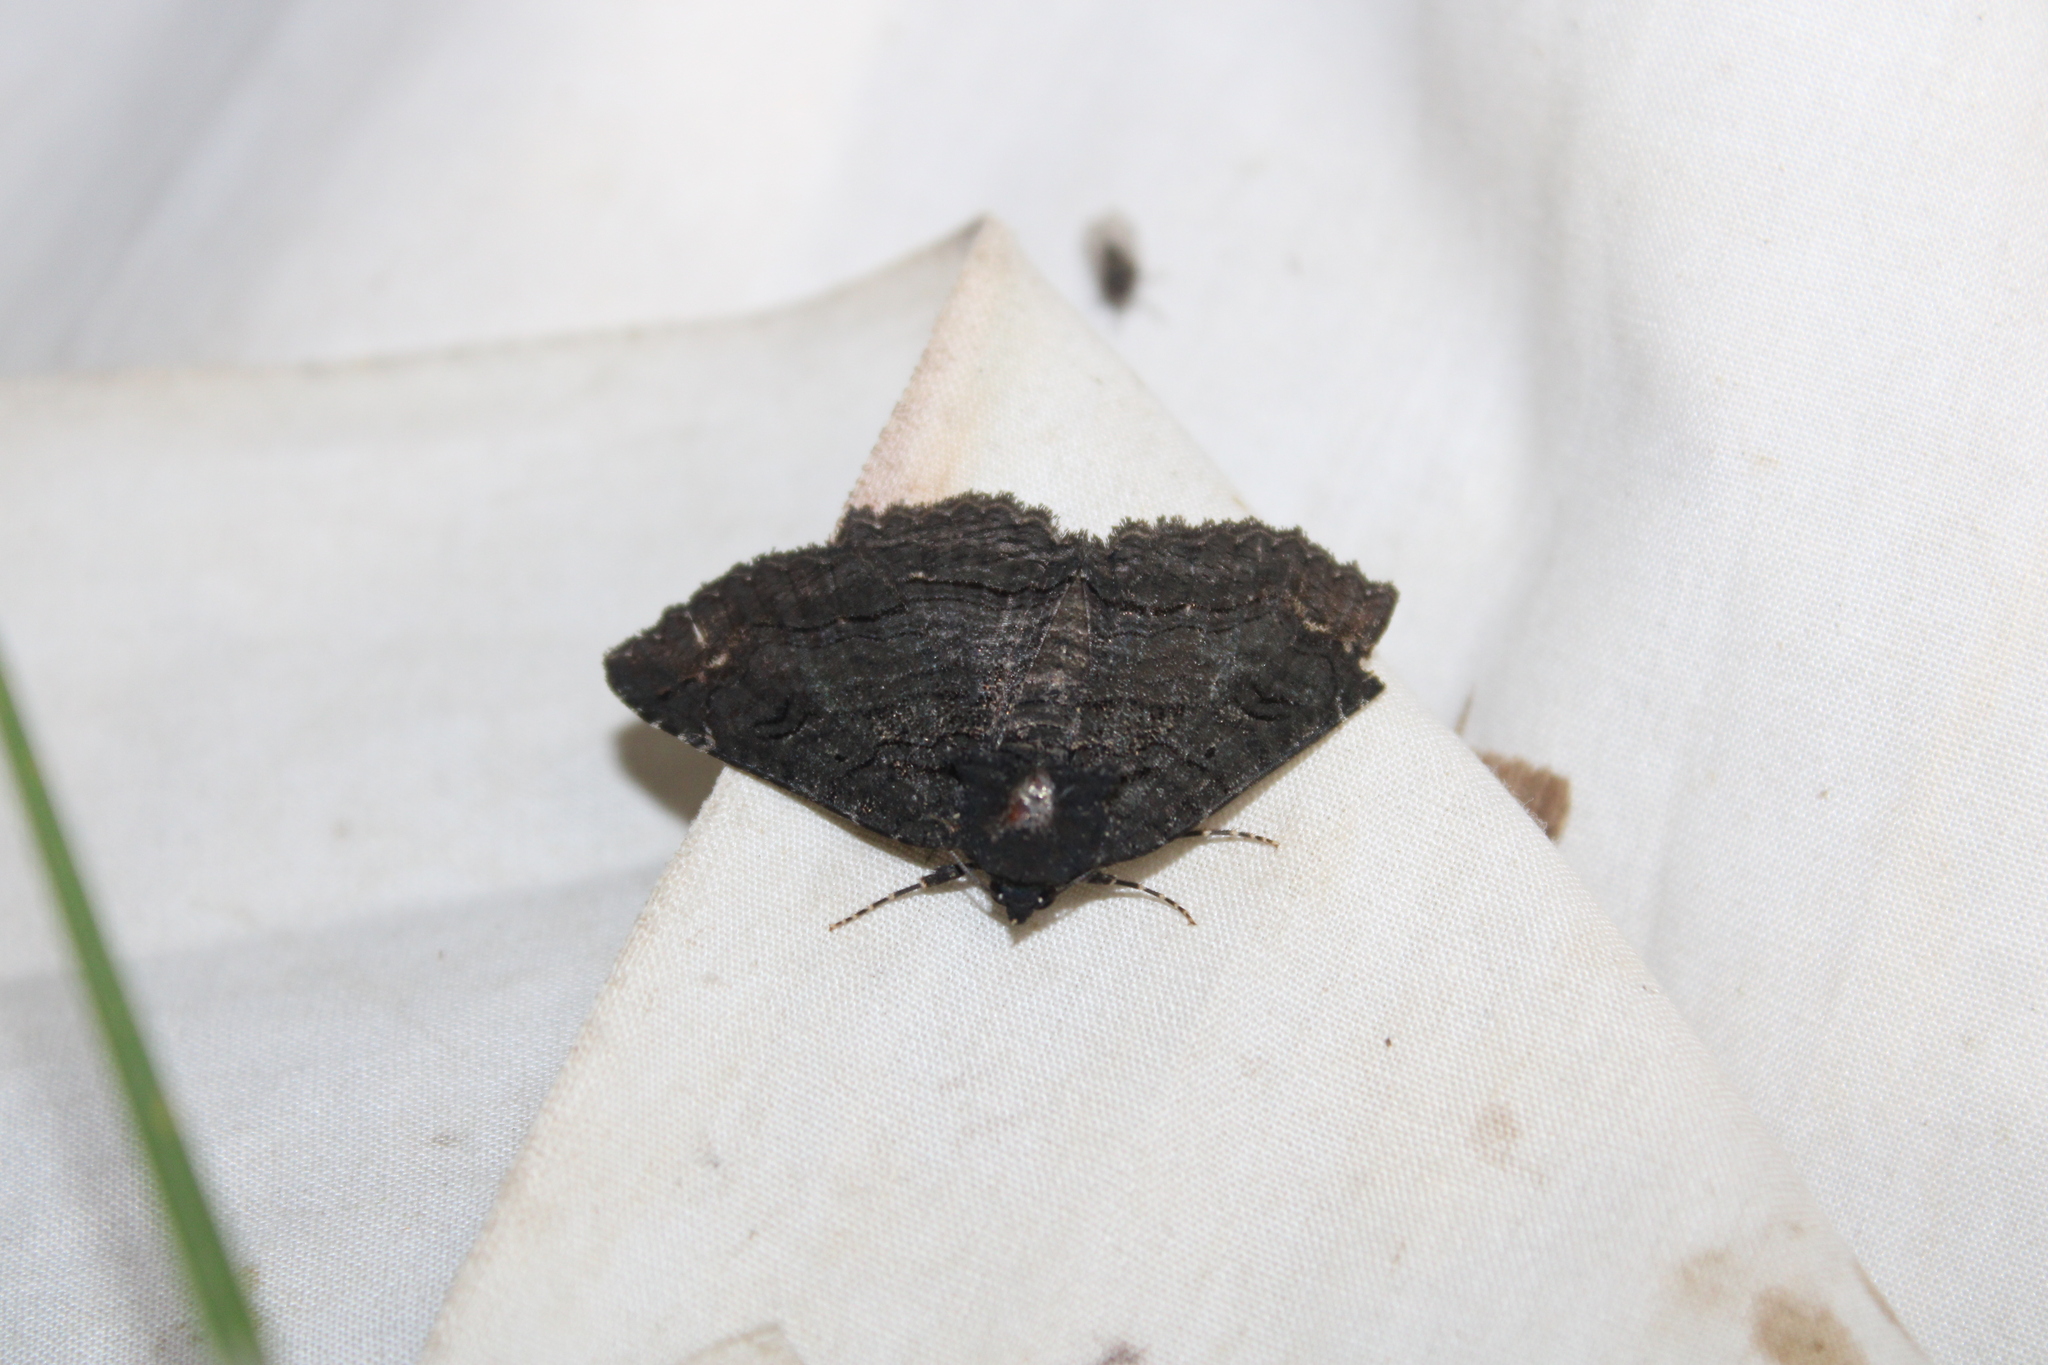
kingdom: Animalia
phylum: Arthropoda
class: Insecta
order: Lepidoptera
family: Erebidae
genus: Zale
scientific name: Zale undularis
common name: Black zale moth
